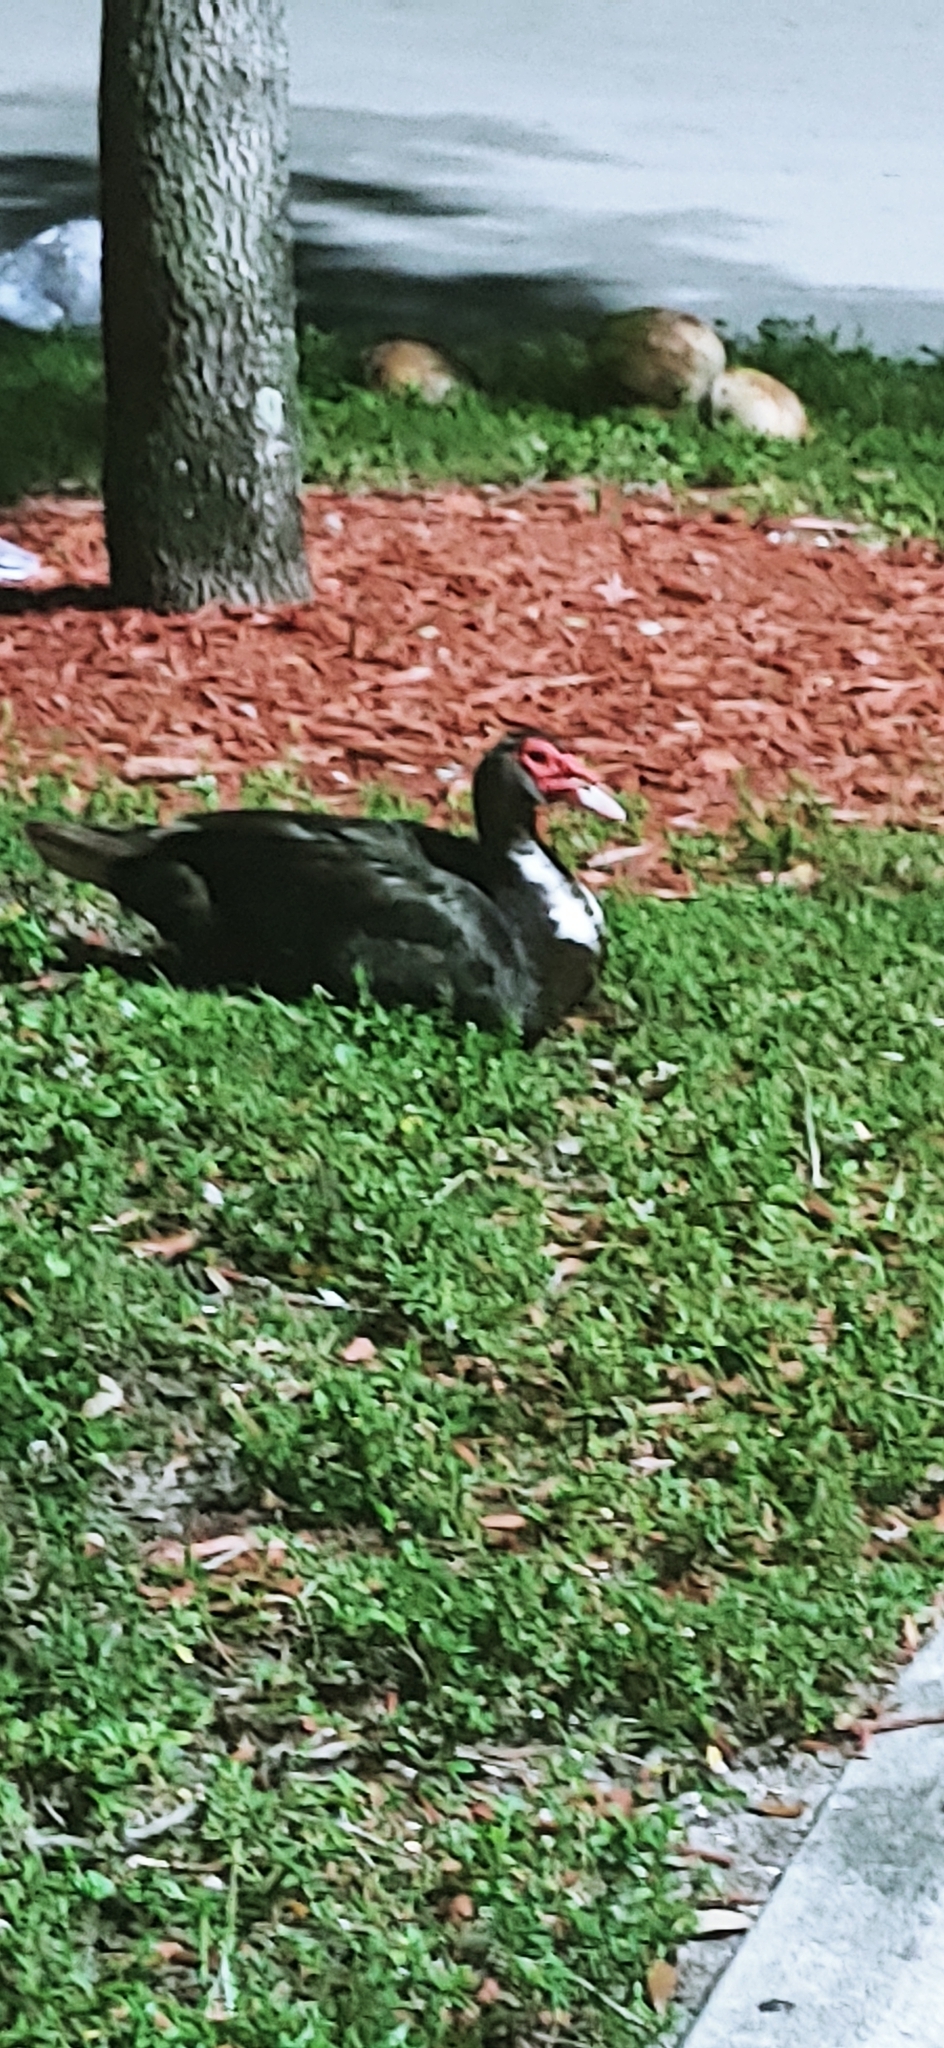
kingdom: Animalia
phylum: Chordata
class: Aves
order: Anseriformes
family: Anatidae
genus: Cairina
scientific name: Cairina moschata
